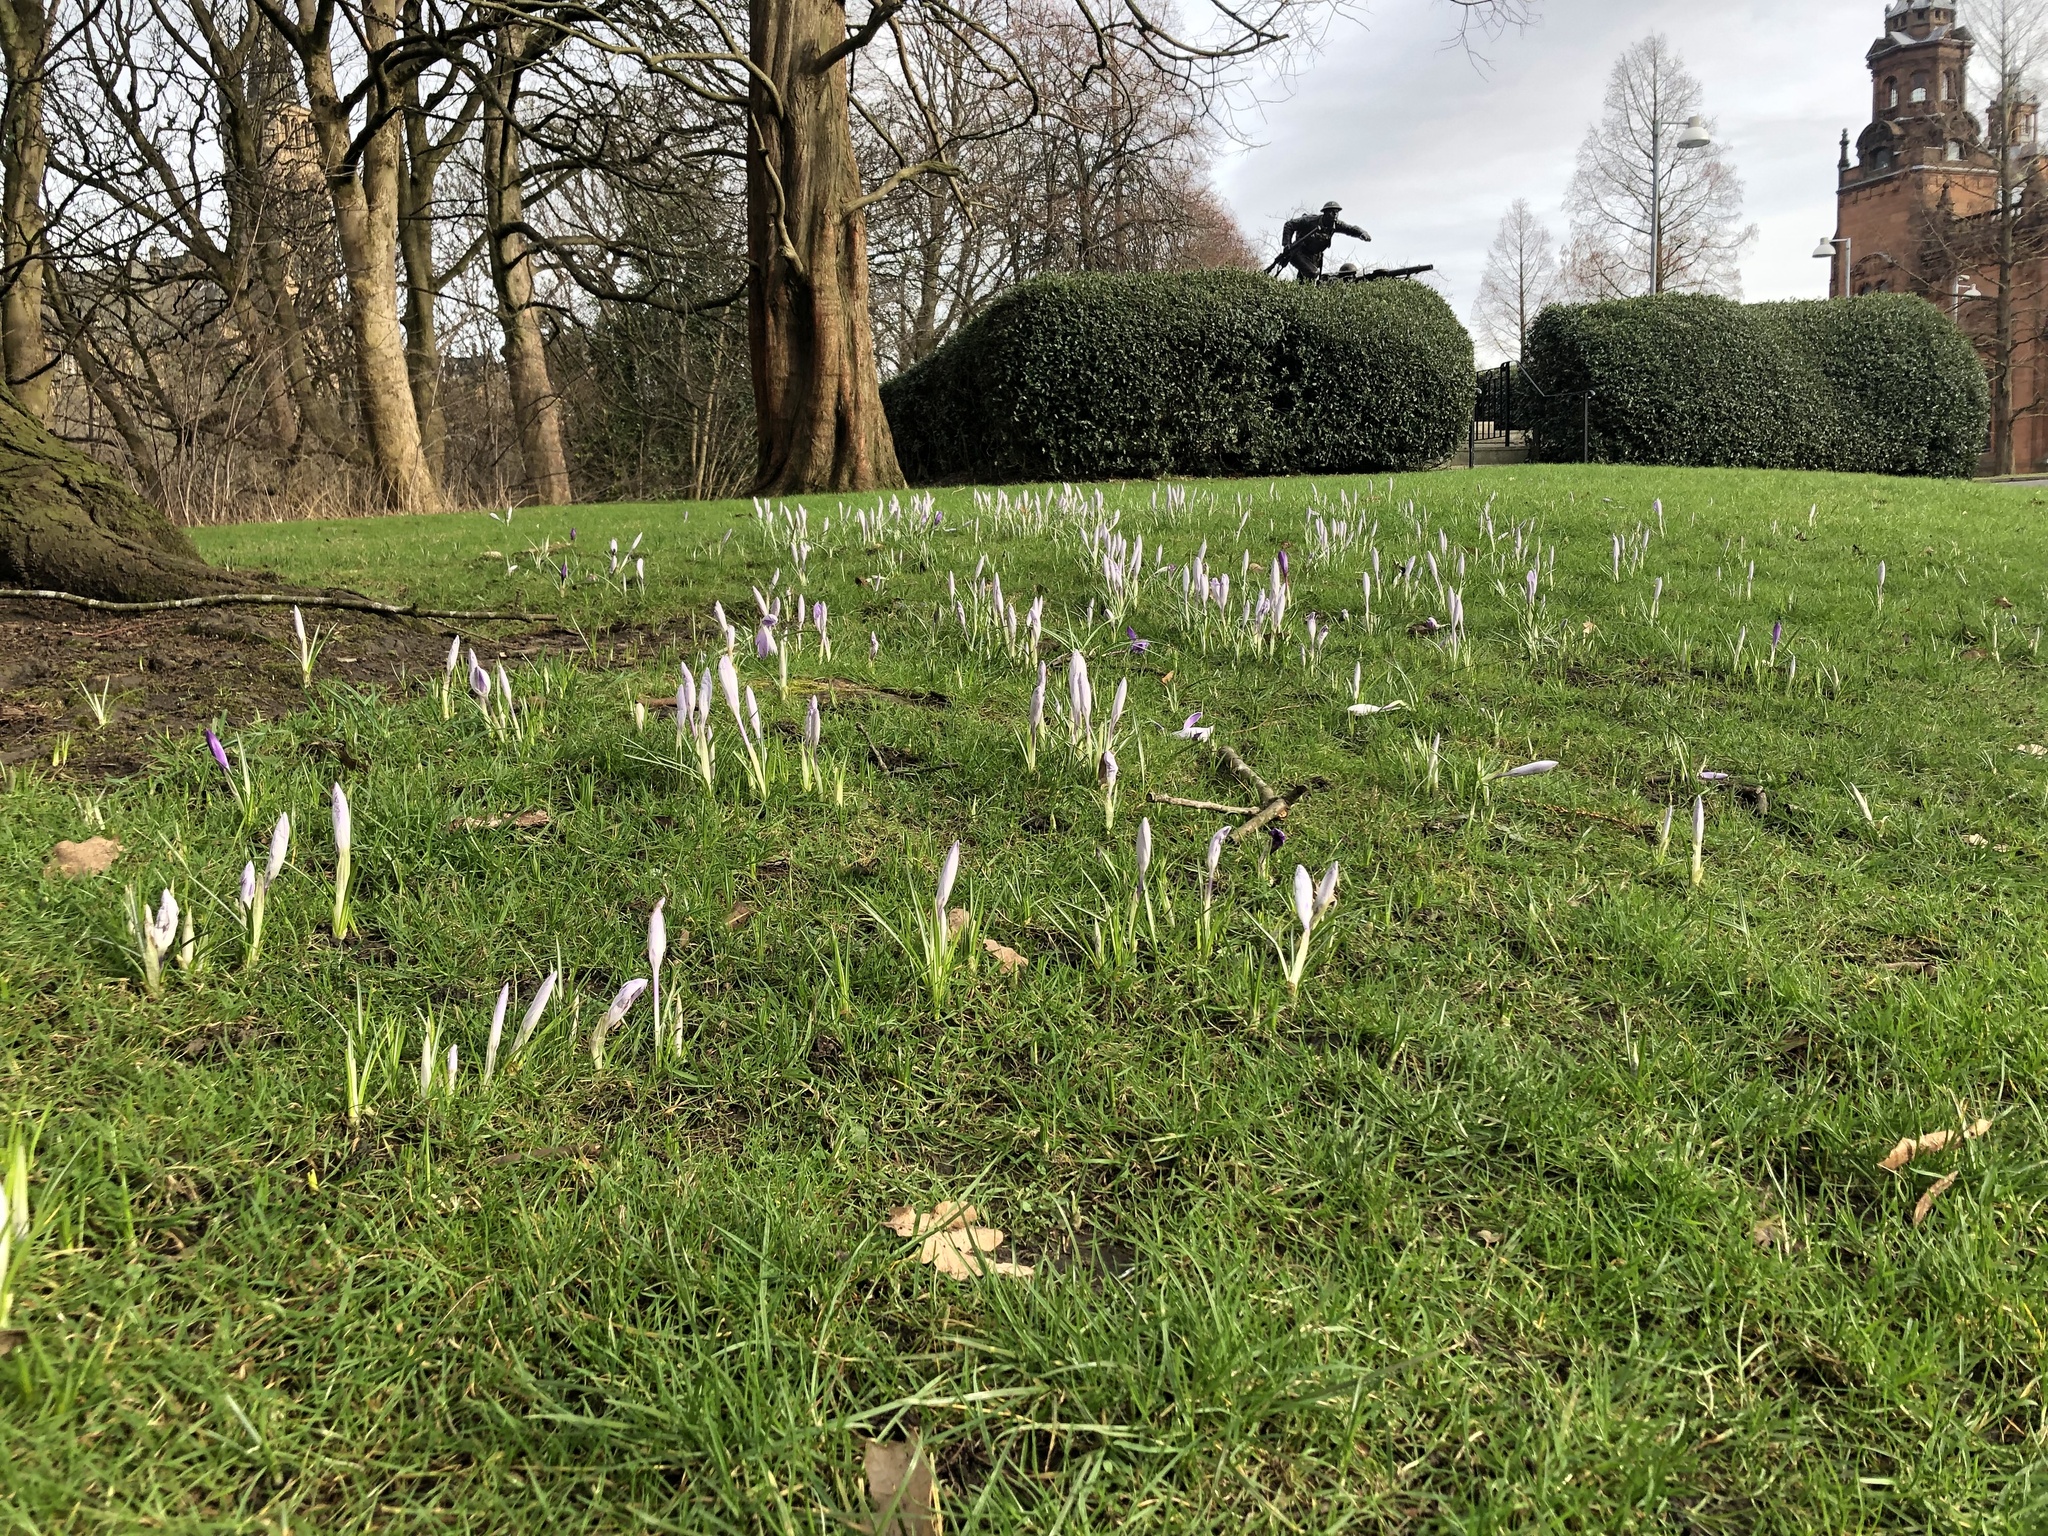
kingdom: Plantae
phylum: Tracheophyta
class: Liliopsida
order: Asparagales
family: Iridaceae
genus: Crocus
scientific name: Crocus tommasinianus
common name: Early crocus
